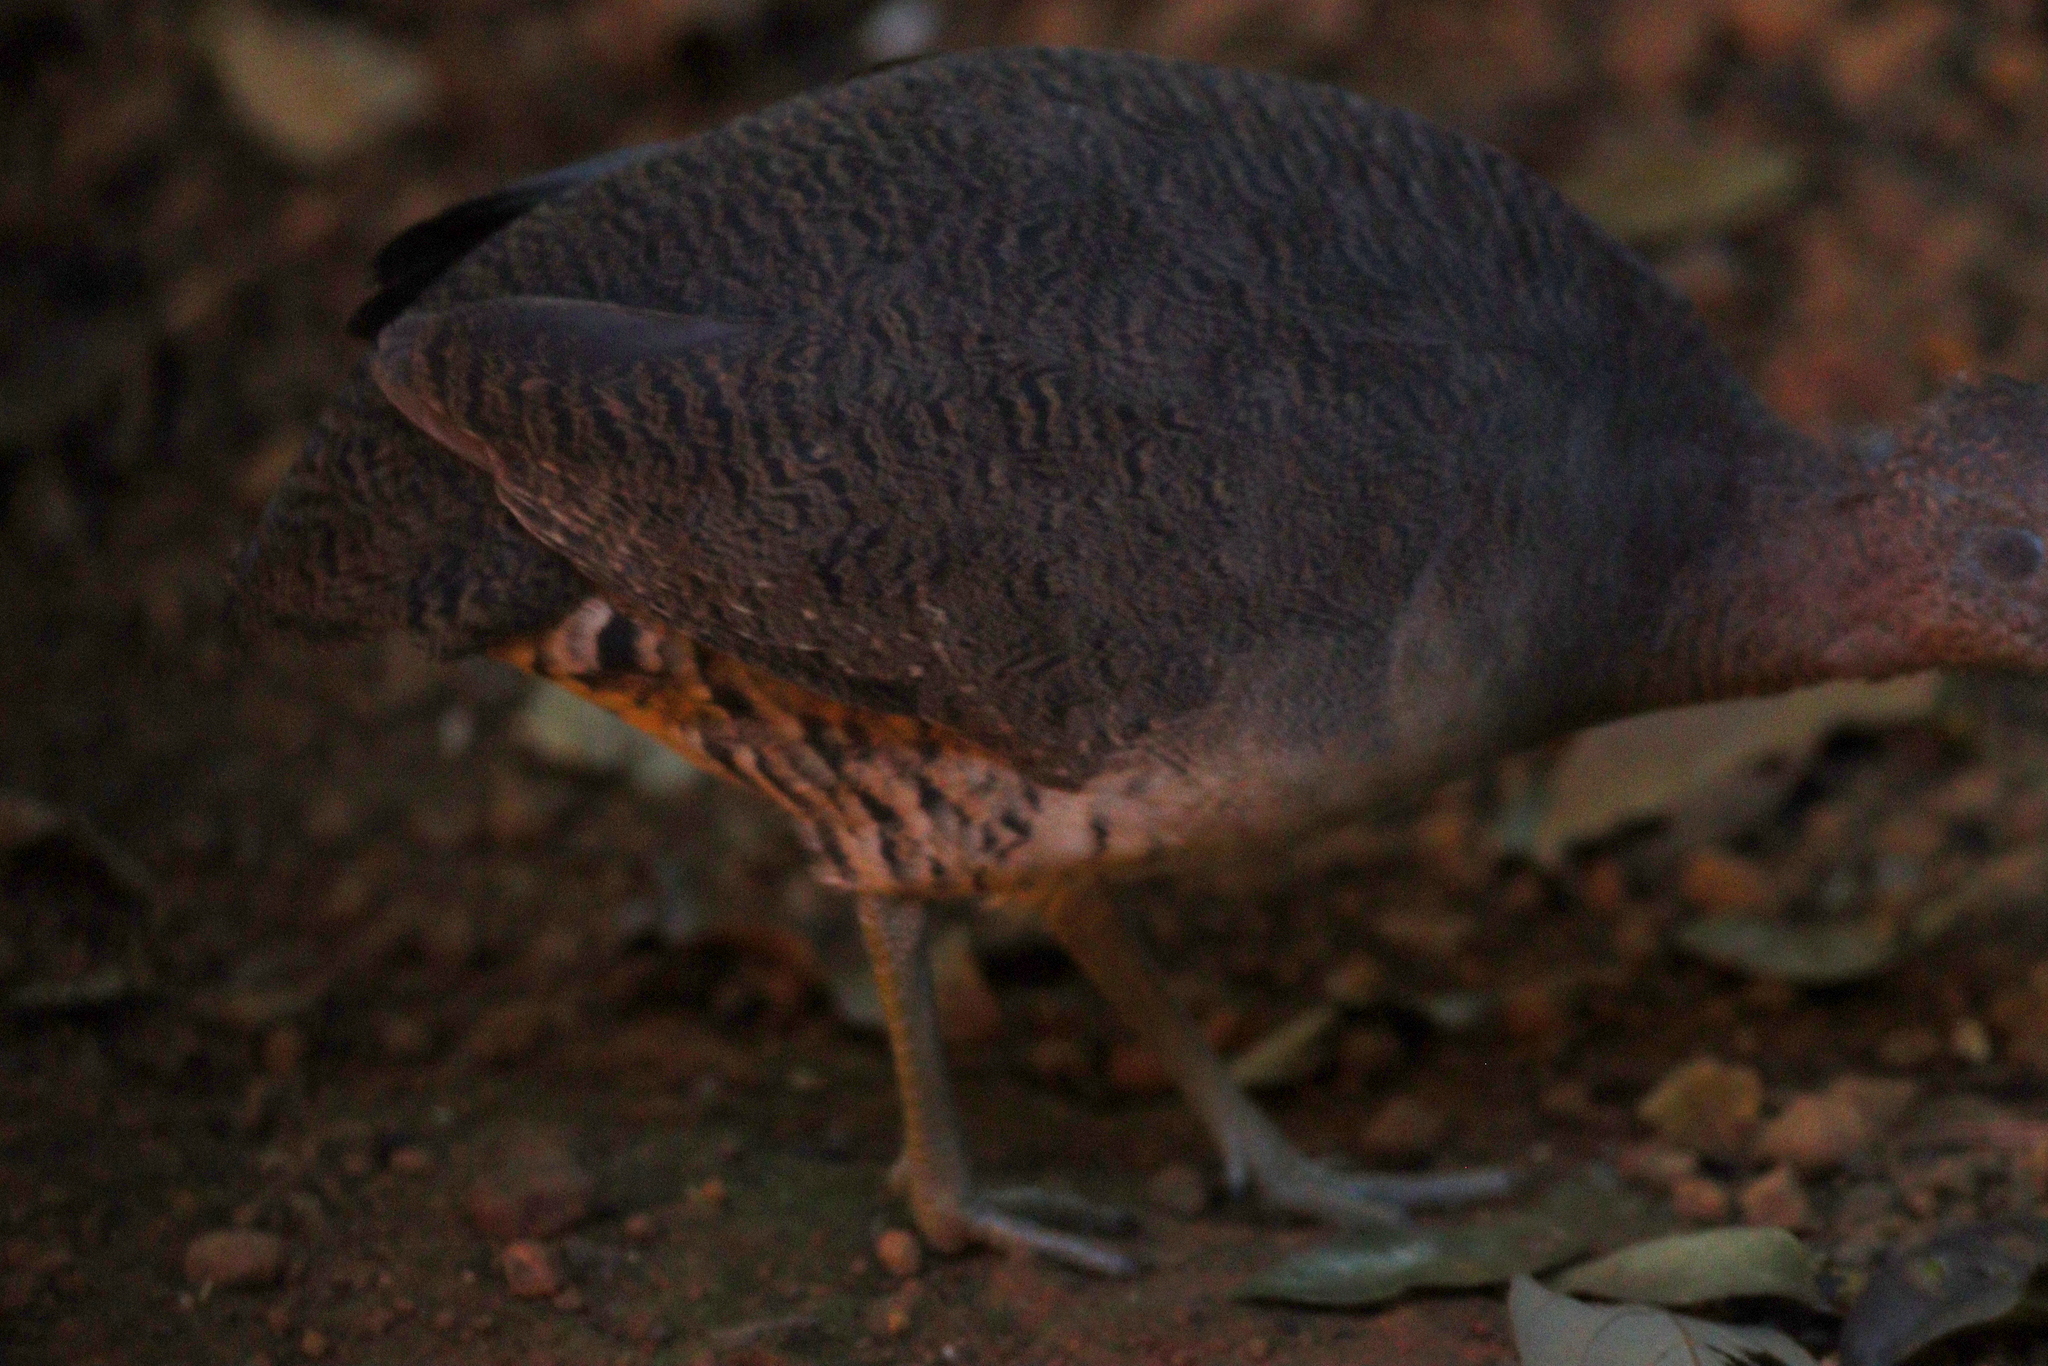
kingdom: Animalia
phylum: Chordata
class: Aves
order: Tinamiformes
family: Tinamidae
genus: Crypturellus
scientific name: Crypturellus undulatus
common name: Undulated tinamou
